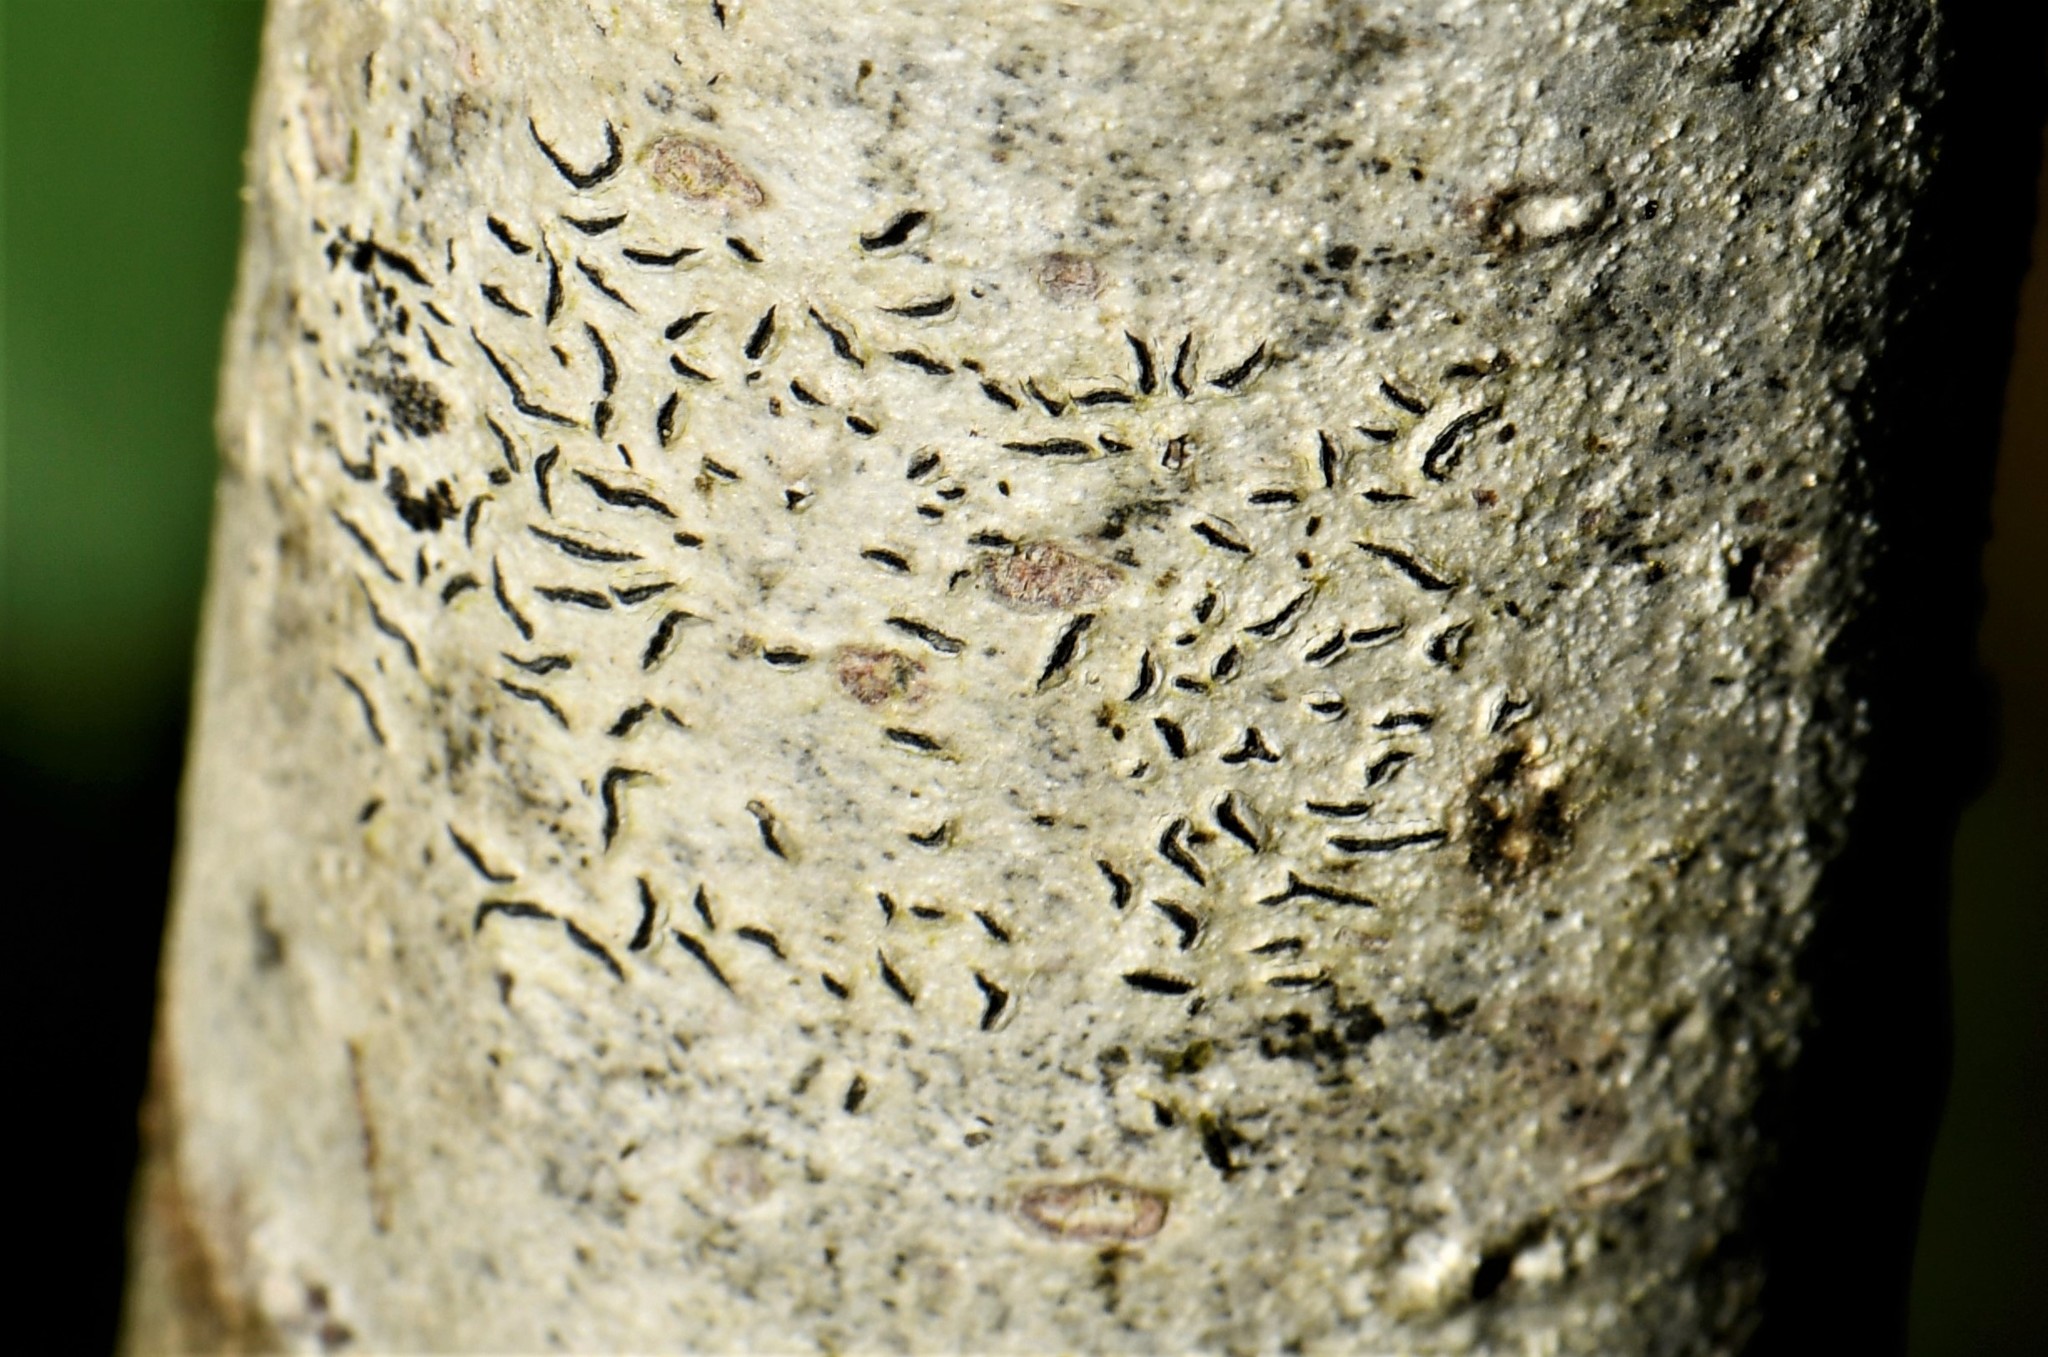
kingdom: Fungi
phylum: Ascomycota
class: Lecanoromycetes
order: Ostropales
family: Graphidaceae
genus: Graphis
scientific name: Graphis scripta
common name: Script lichen
